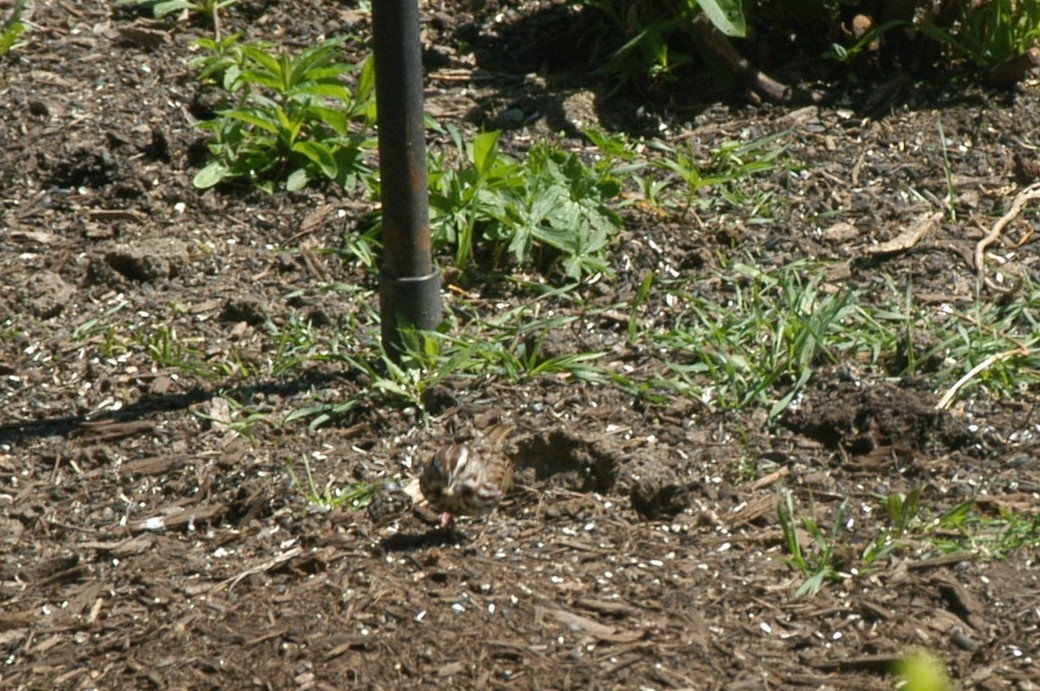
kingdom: Animalia
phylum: Chordata
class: Aves
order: Passeriformes
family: Passerellidae
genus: Melospiza
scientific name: Melospiza melodia
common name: Song sparrow
